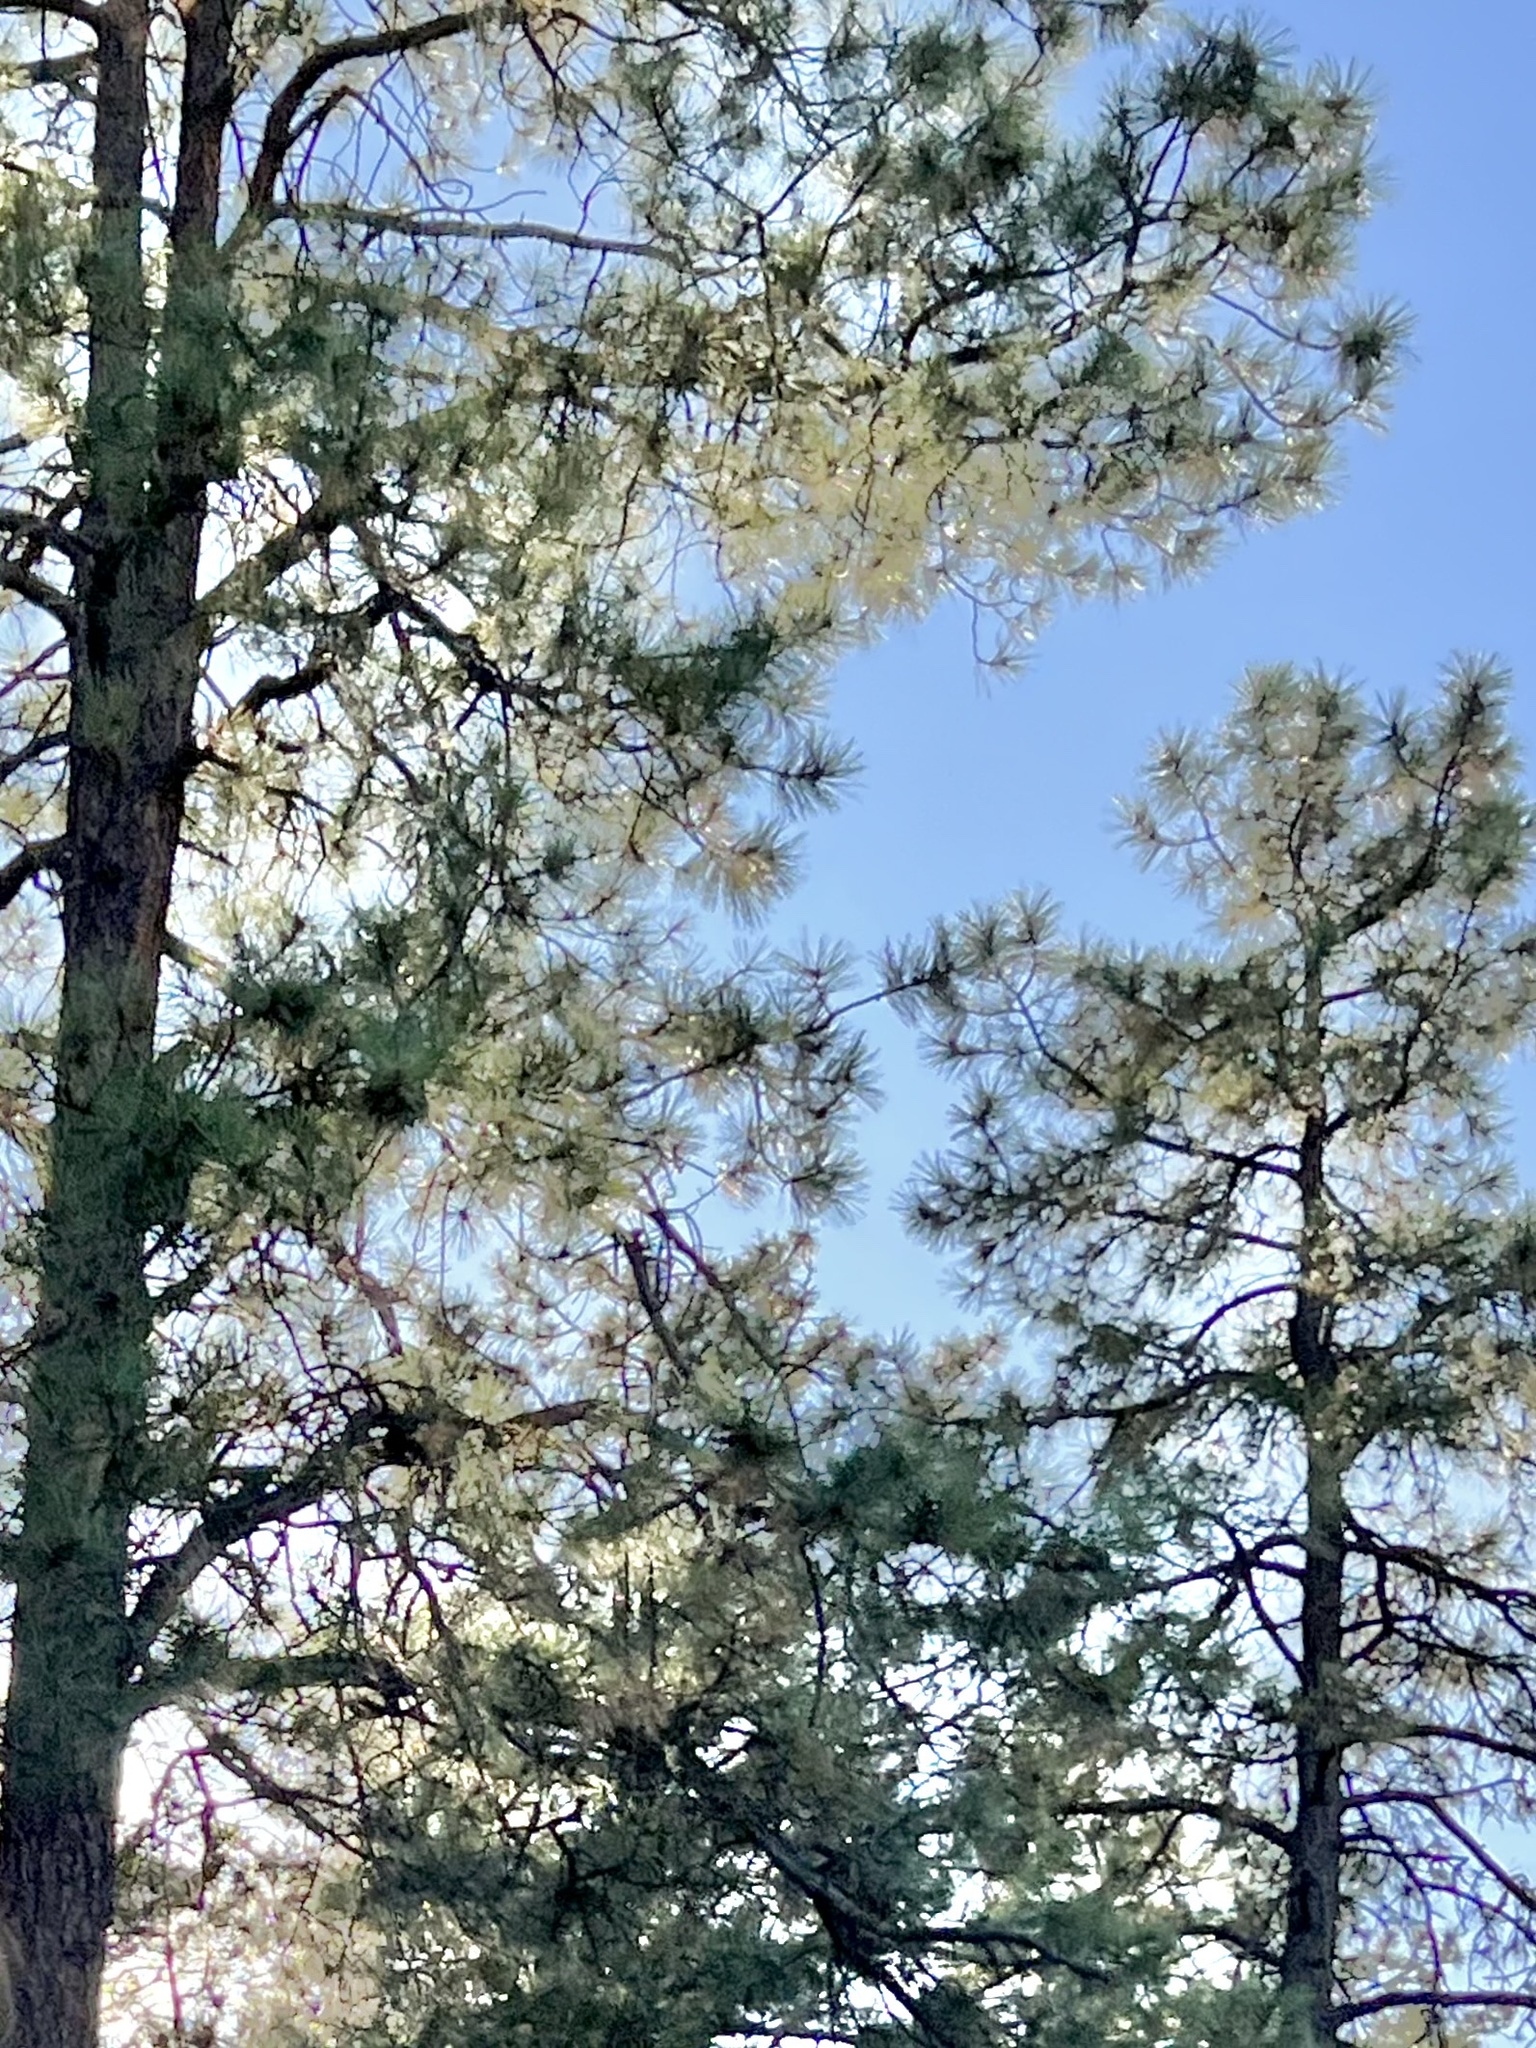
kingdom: Plantae
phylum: Tracheophyta
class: Pinopsida
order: Pinales
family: Pinaceae
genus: Pinus
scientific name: Pinus ponderosa
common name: Western yellow-pine
